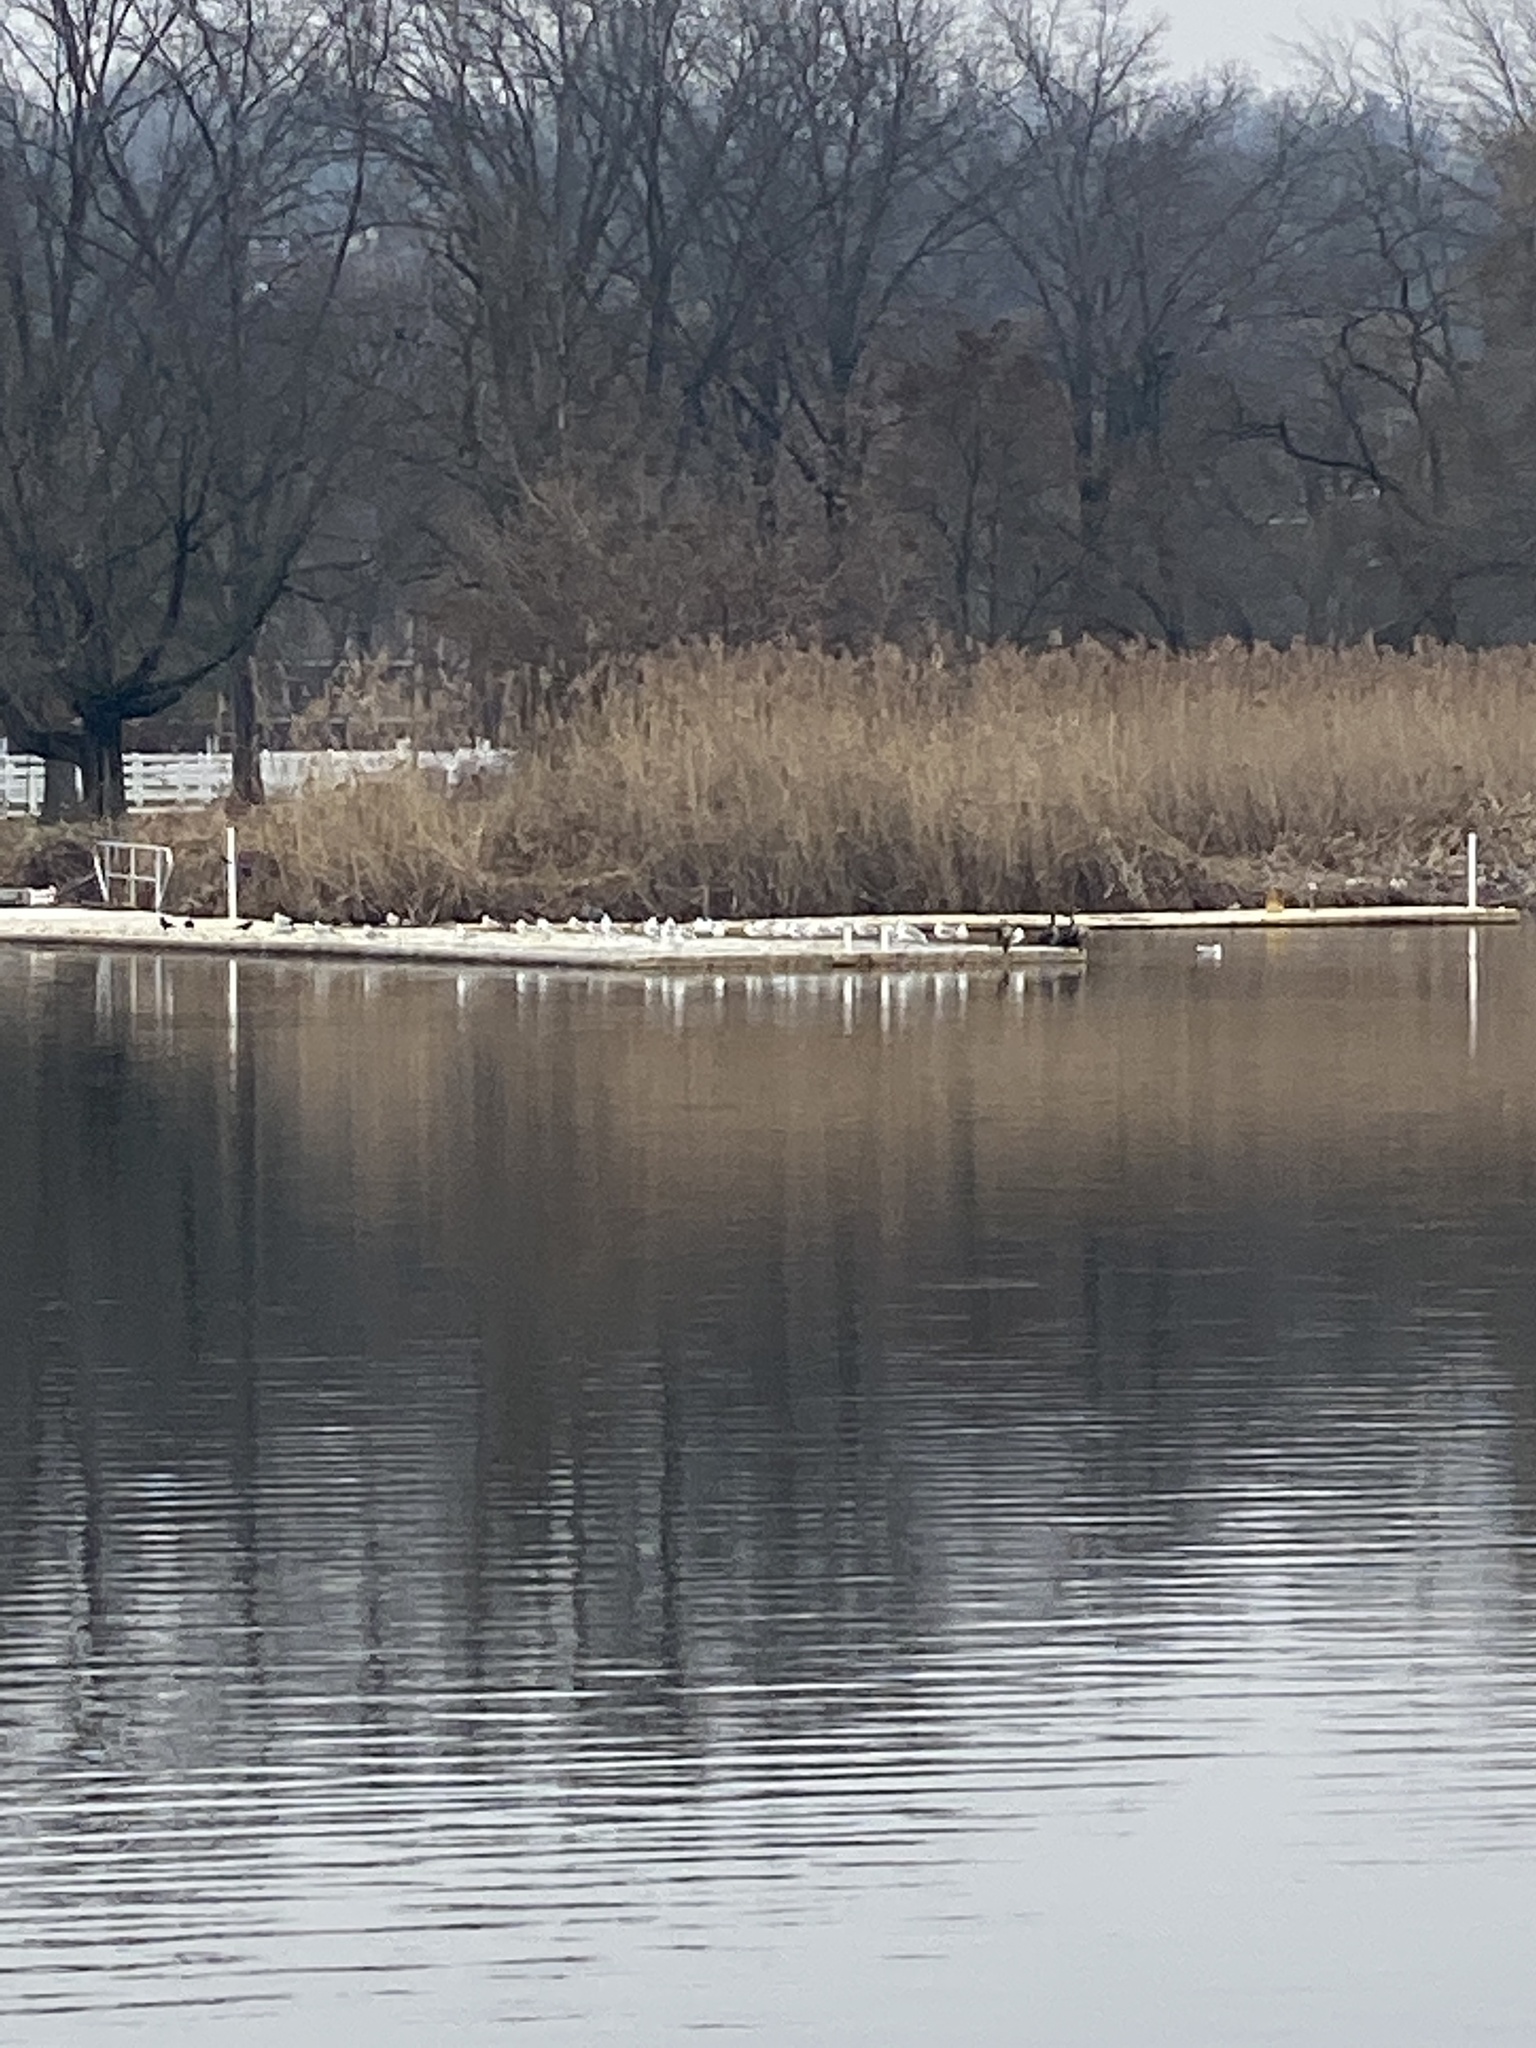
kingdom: Animalia
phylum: Chordata
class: Aves
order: Suliformes
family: Phalacrocoracidae
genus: Phalacrocorax
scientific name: Phalacrocorax auritus
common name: Double-crested cormorant
